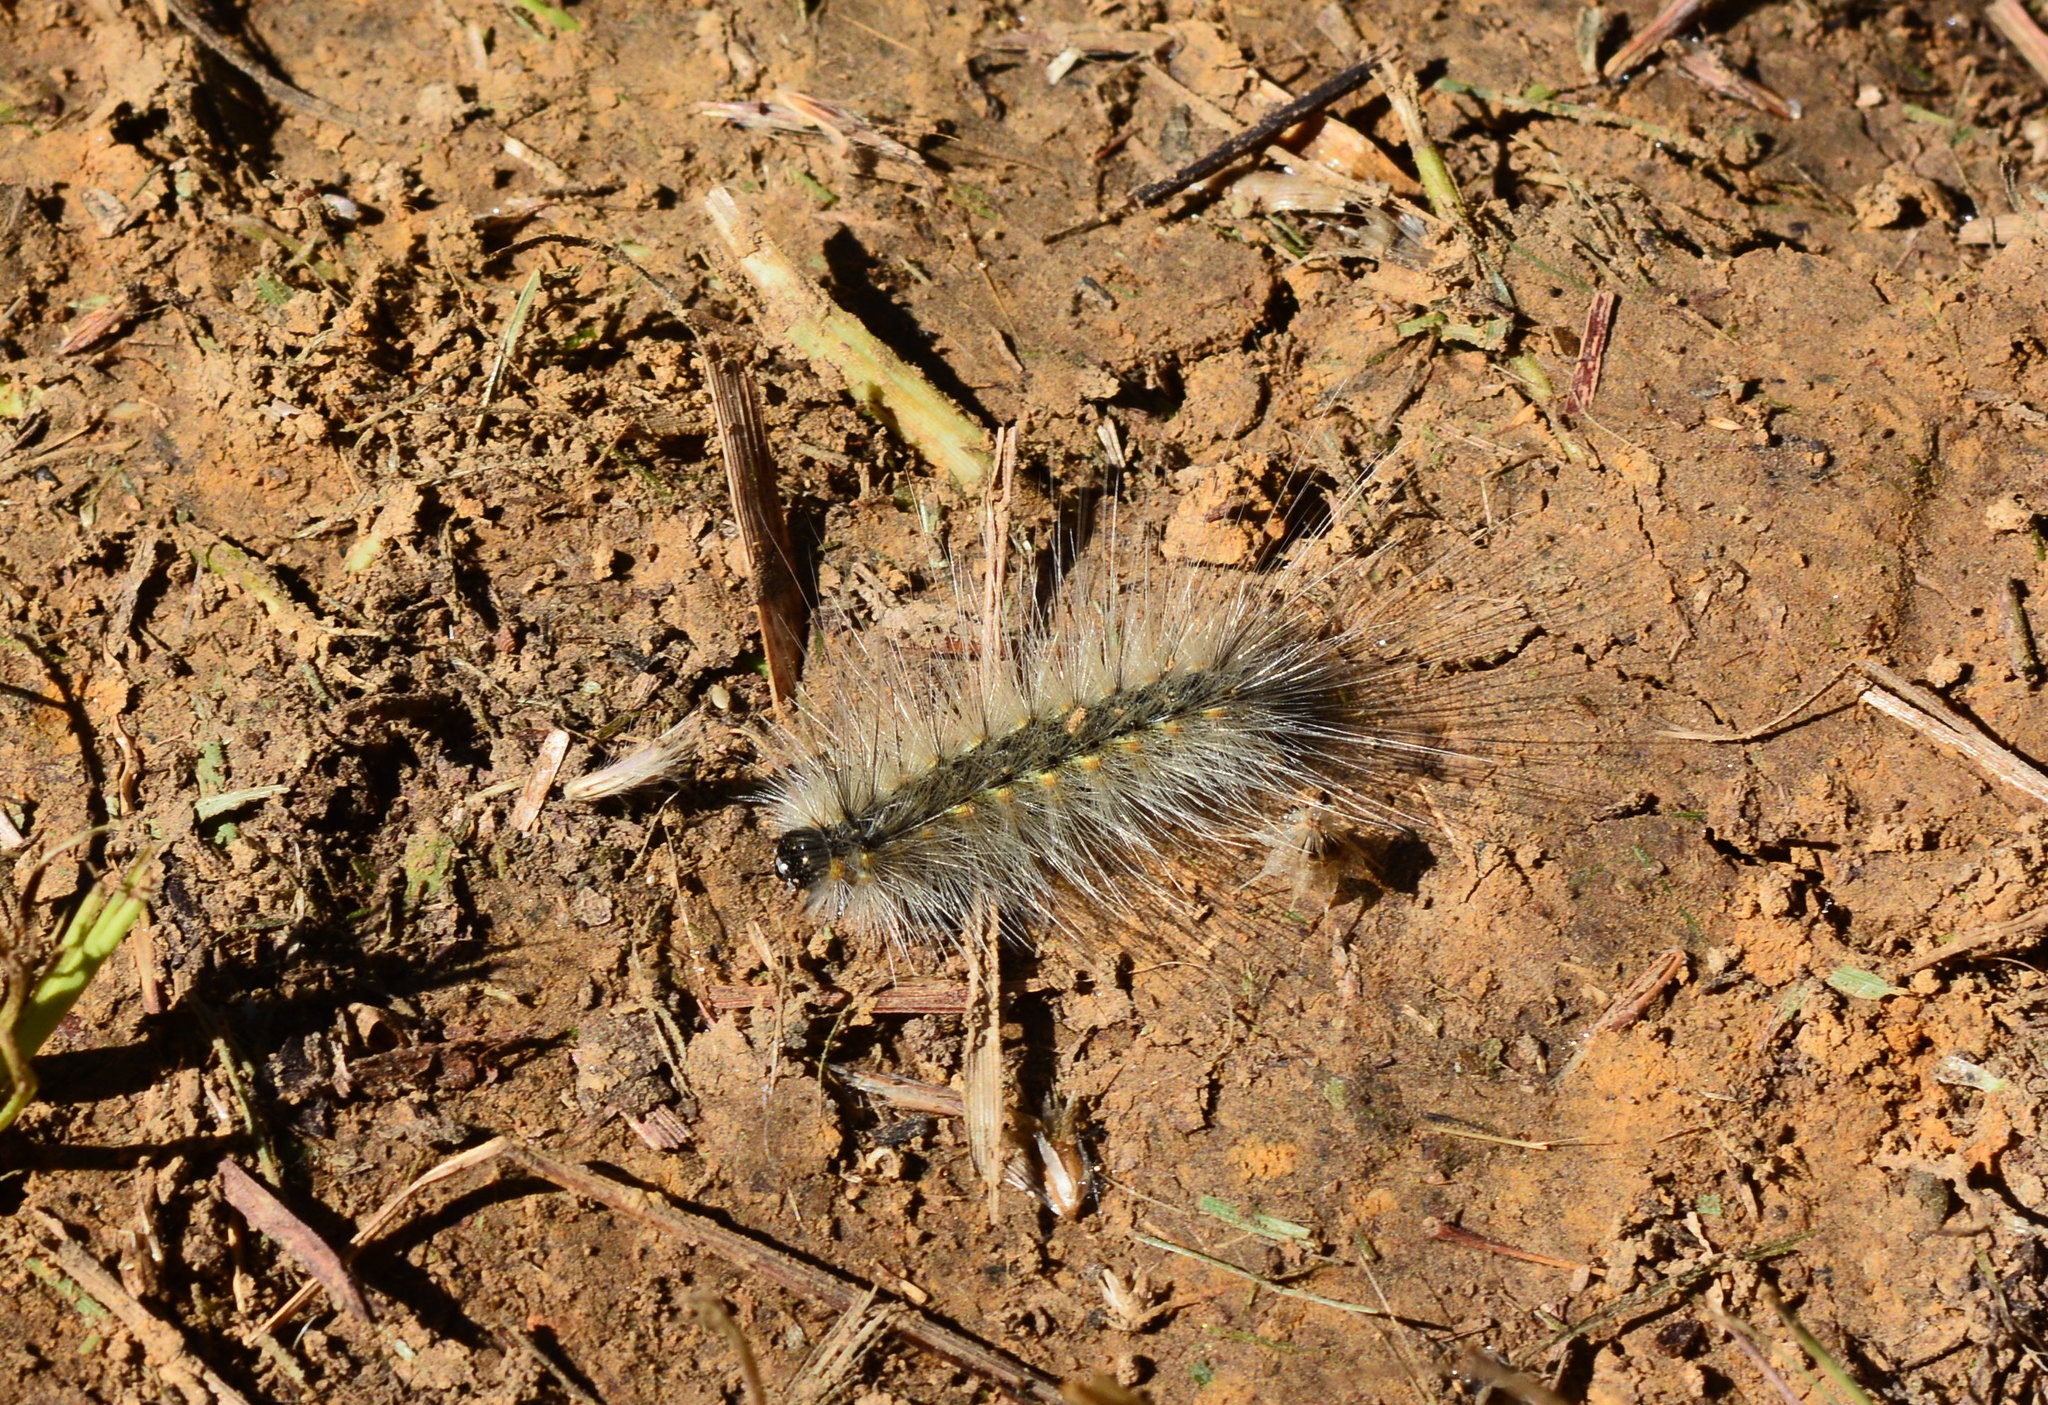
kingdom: Animalia
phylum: Arthropoda
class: Insecta
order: Lepidoptera
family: Erebidae
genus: Hyphantria
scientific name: Hyphantria cunea
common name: American white moth
